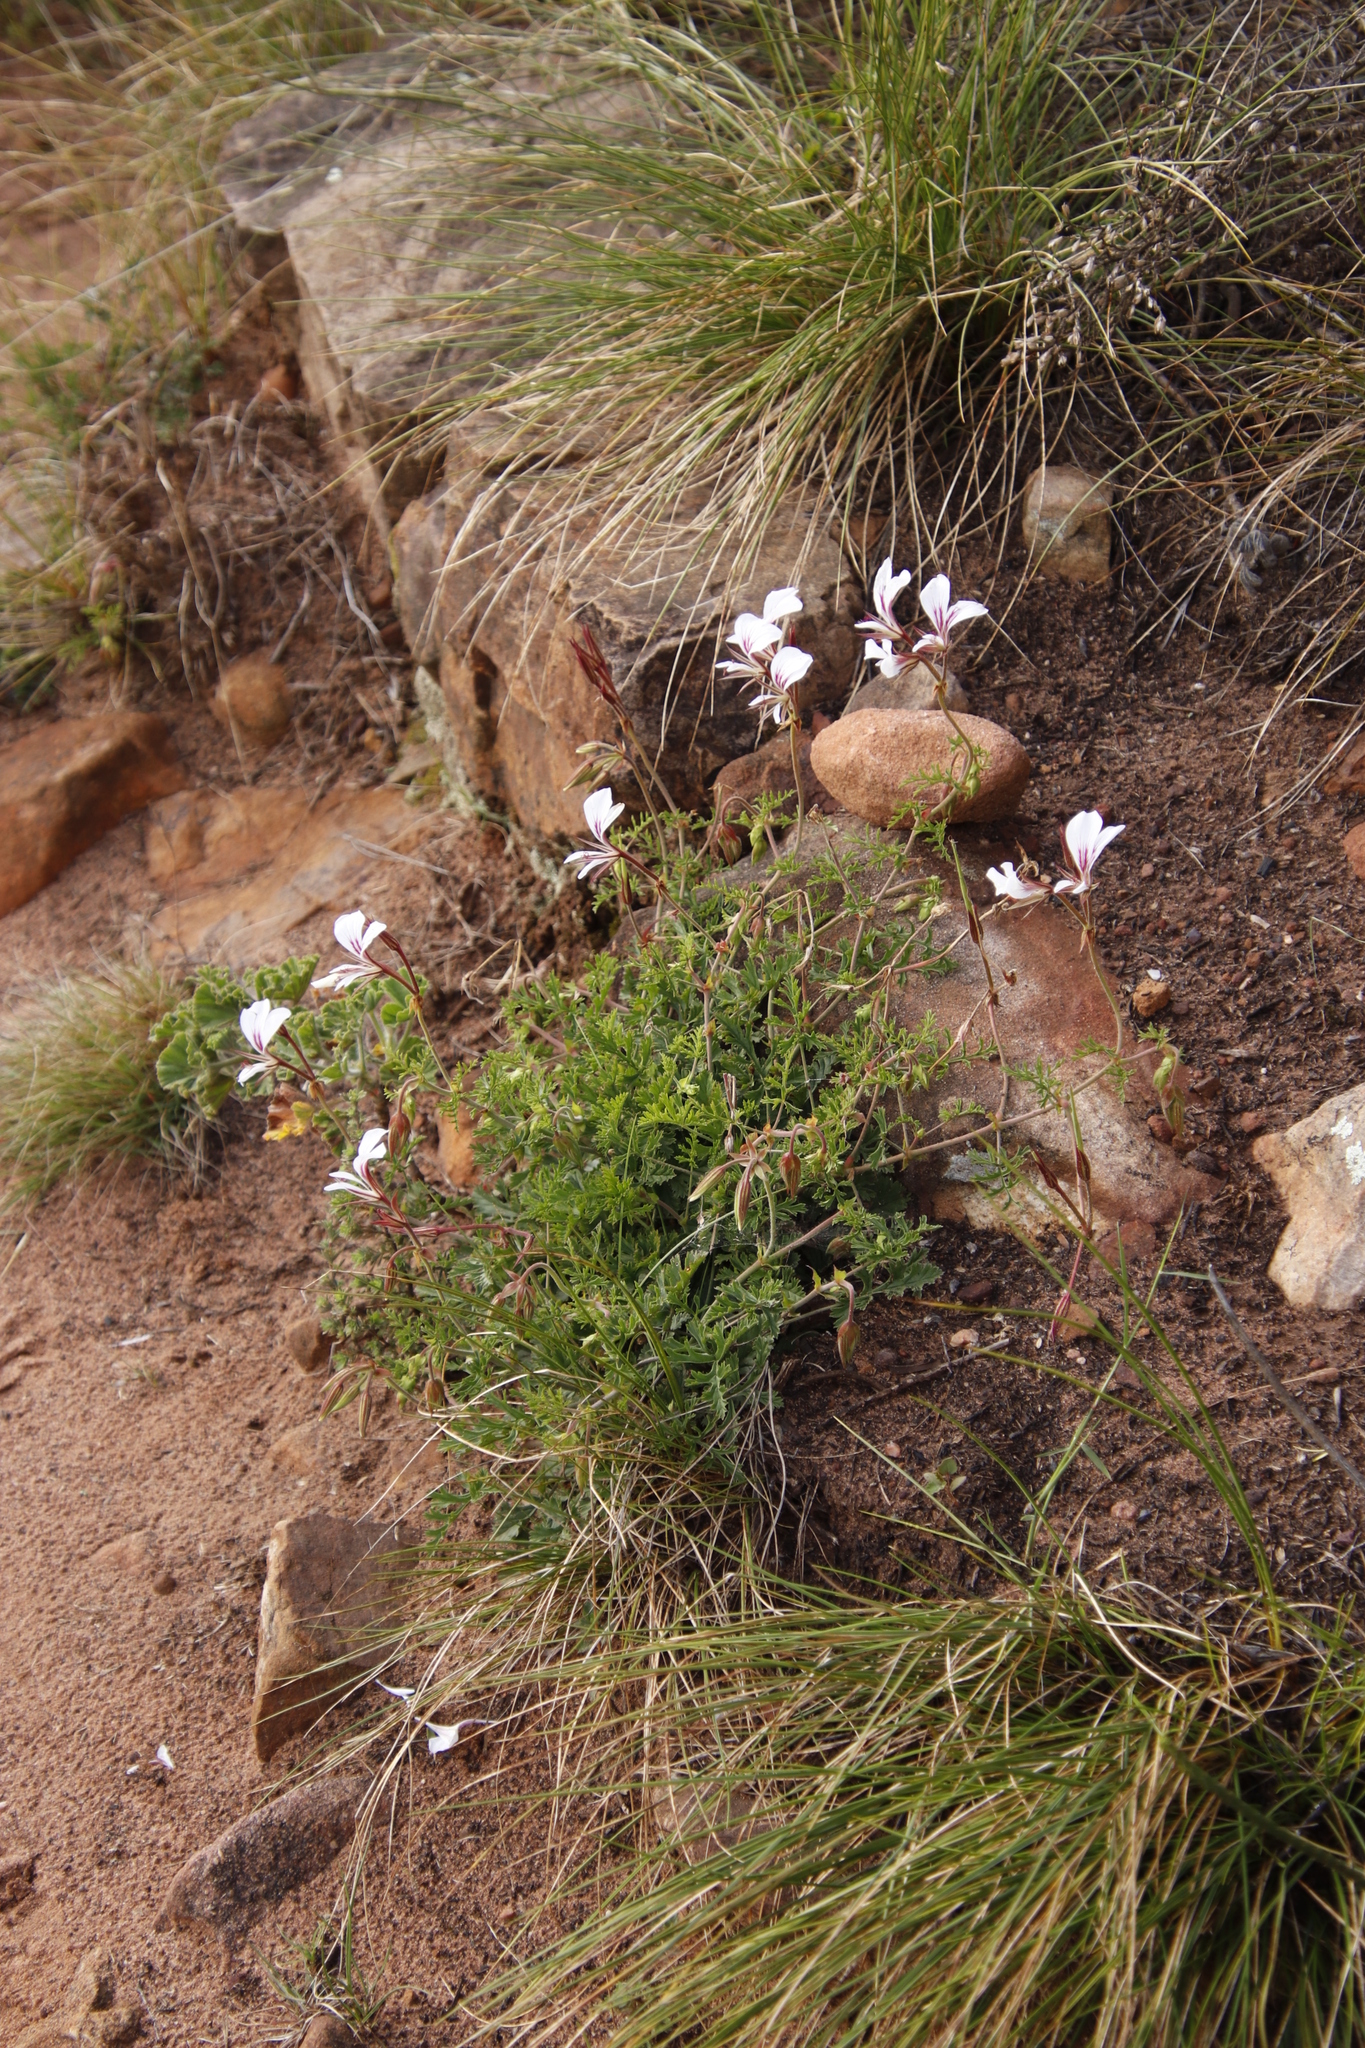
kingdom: Plantae
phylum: Tracheophyta
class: Magnoliopsida
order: Geraniales
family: Geraniaceae
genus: Pelargonium
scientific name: Pelargonium longicaule
